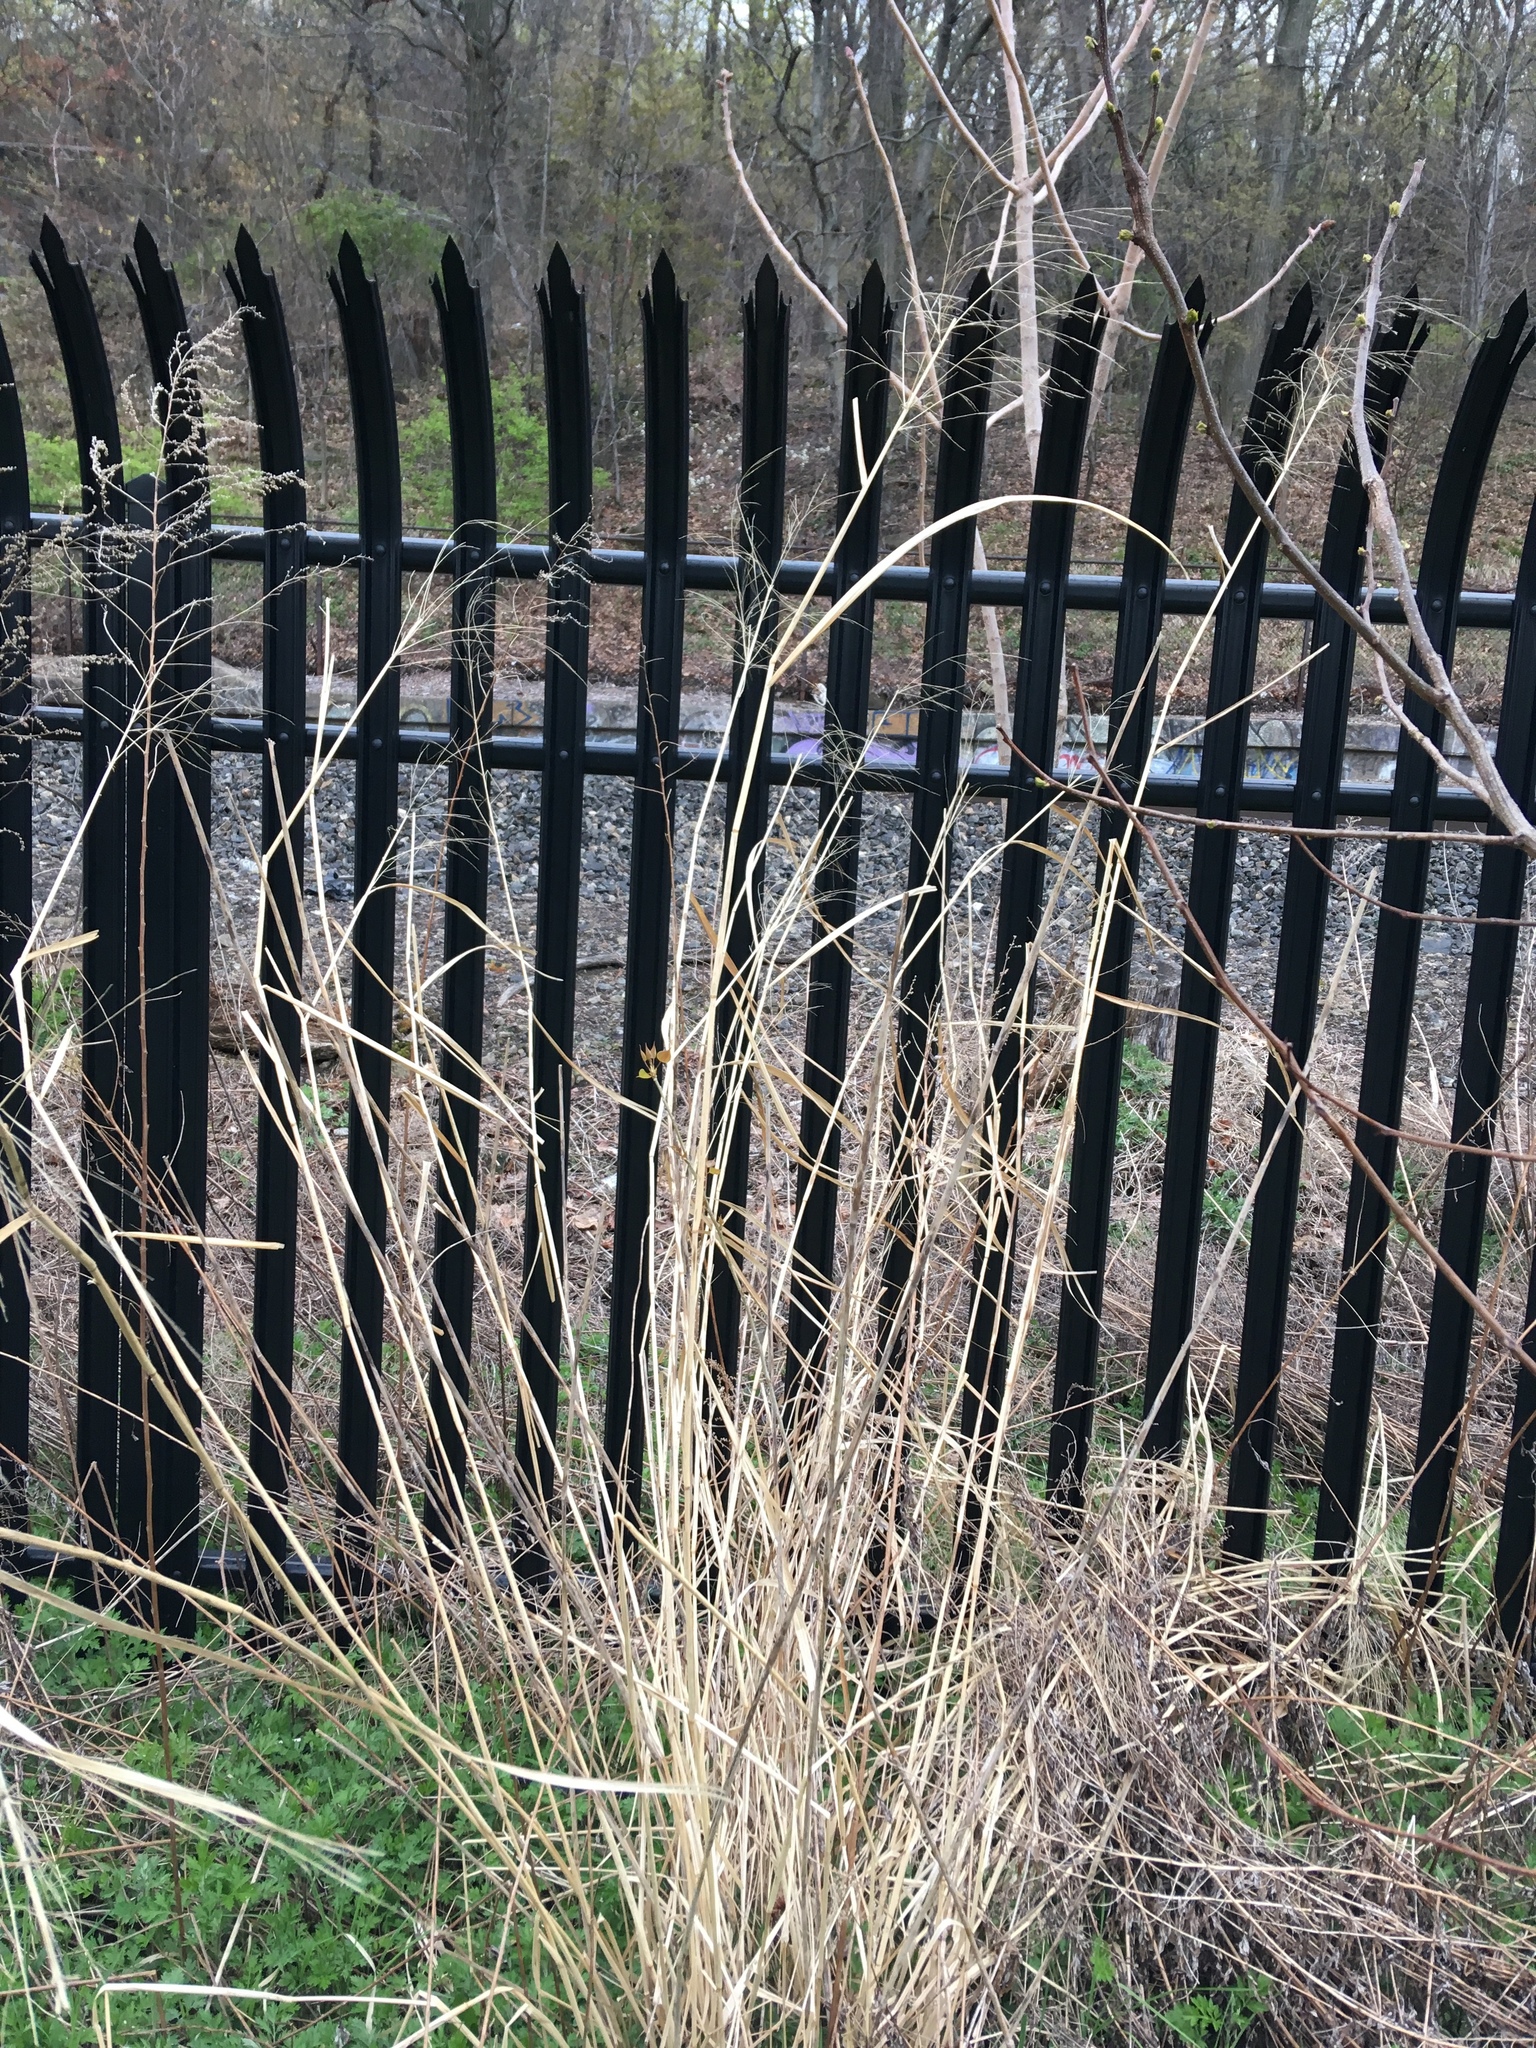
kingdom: Plantae
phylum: Tracheophyta
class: Liliopsida
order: Poales
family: Poaceae
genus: Panicum
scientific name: Panicum virgatum
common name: Switchgrass
